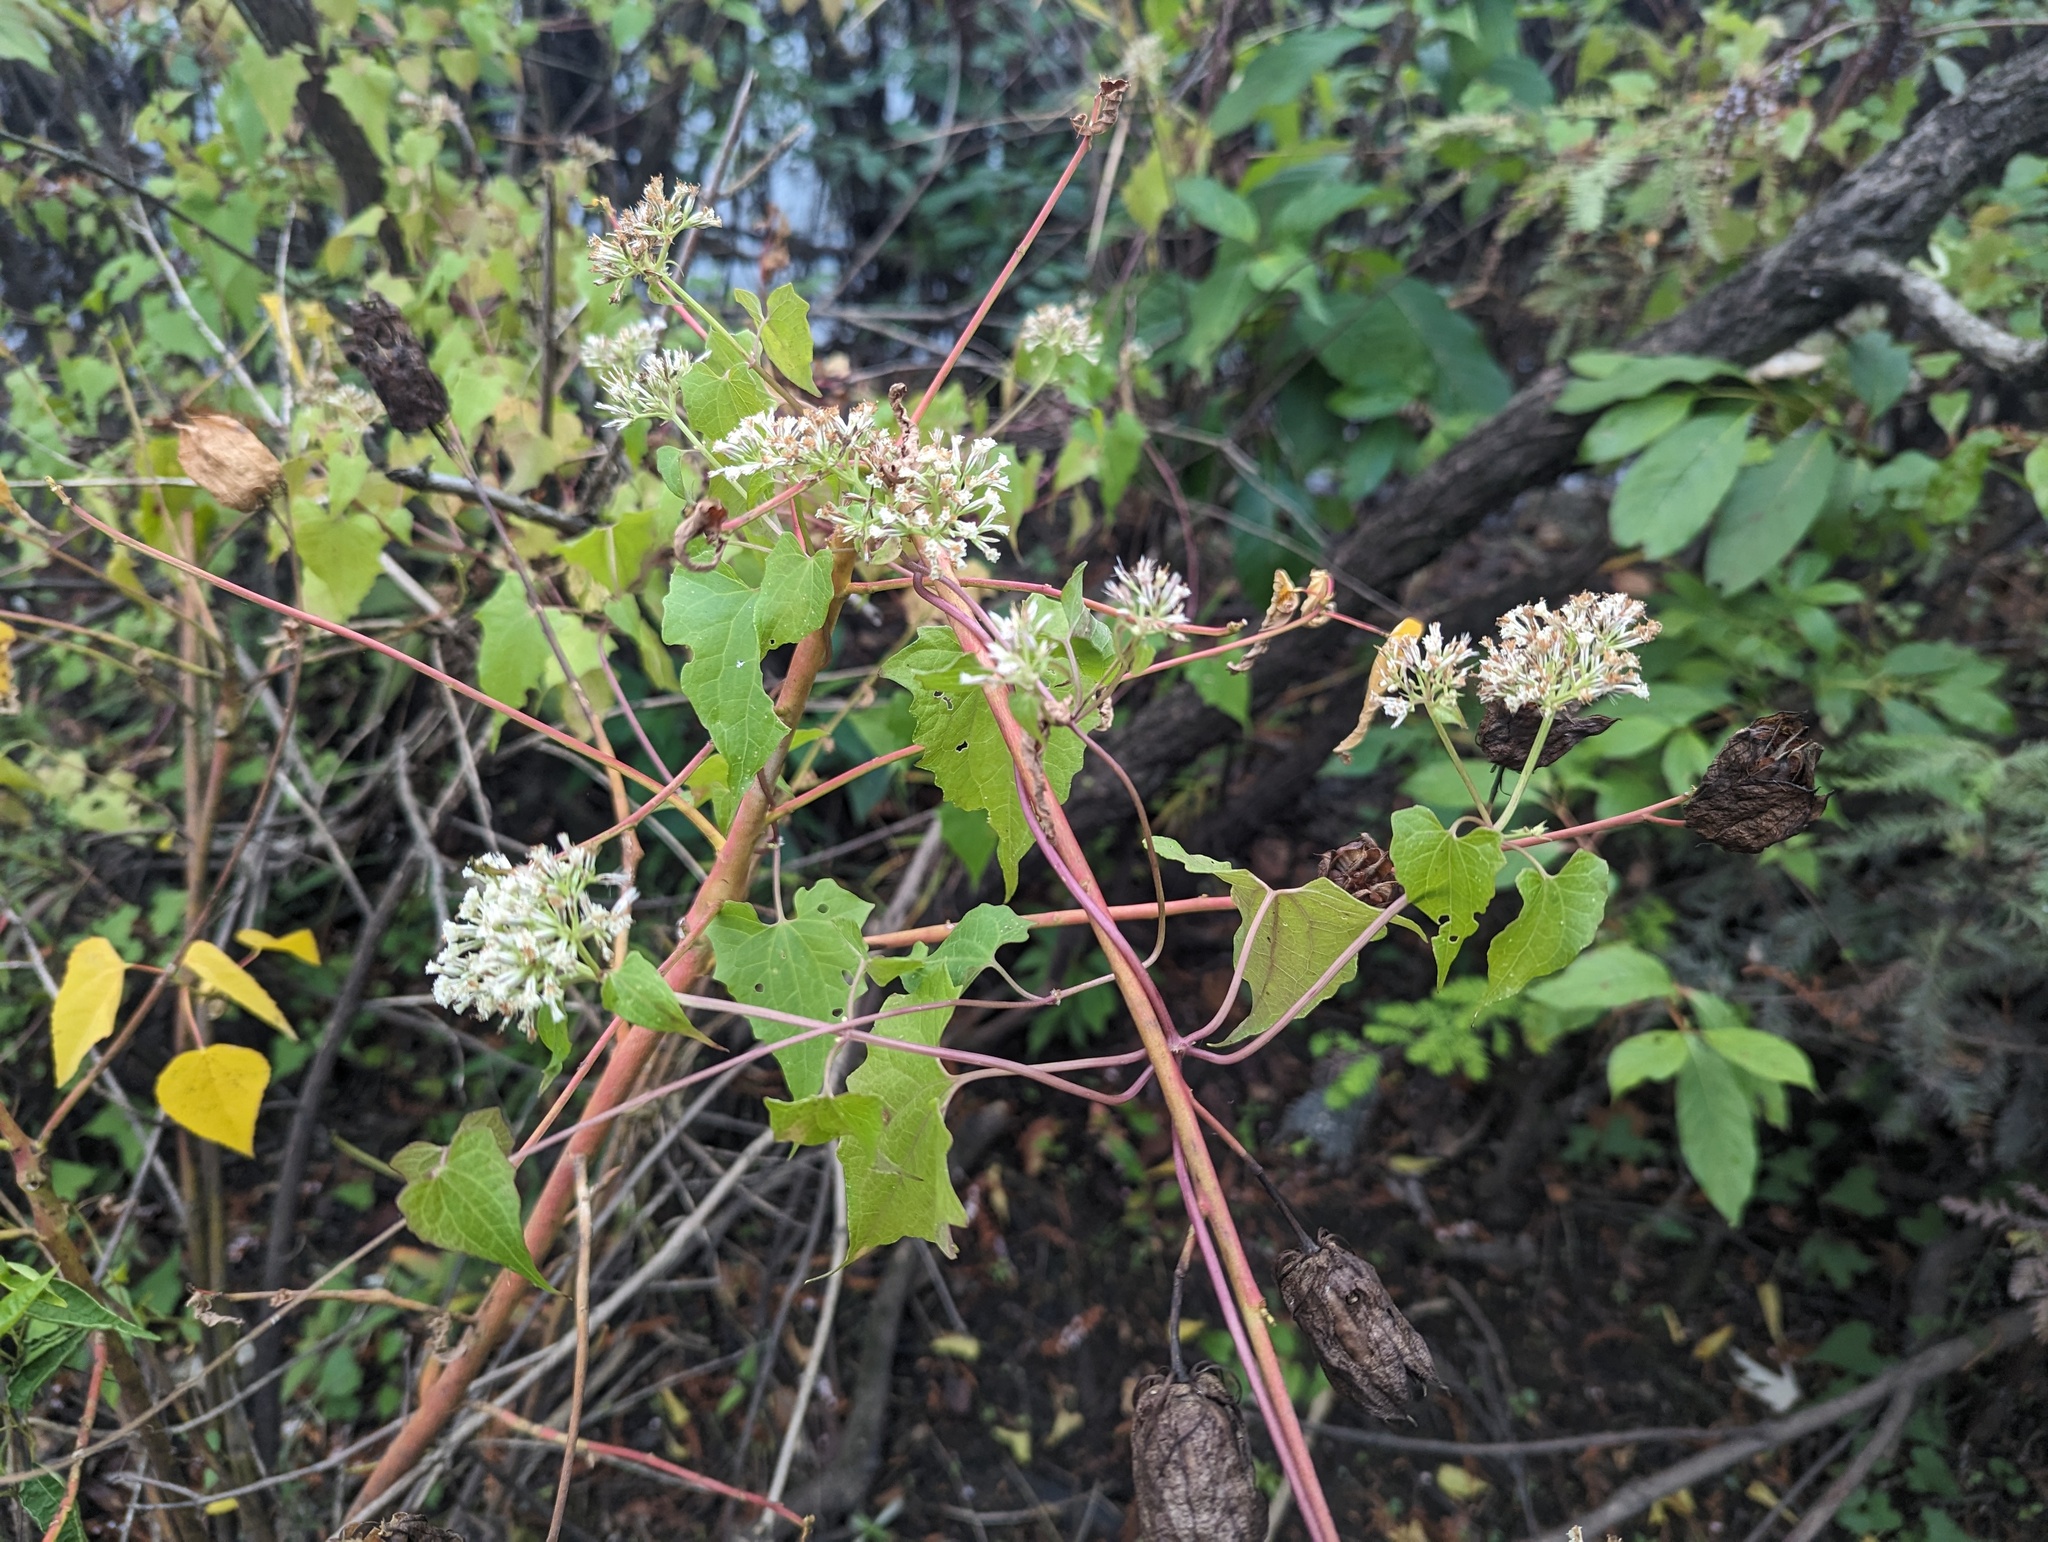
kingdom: Plantae
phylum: Tracheophyta
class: Magnoliopsida
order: Asterales
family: Asteraceae
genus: Mikania
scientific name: Mikania scandens
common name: Climbing hempvine
